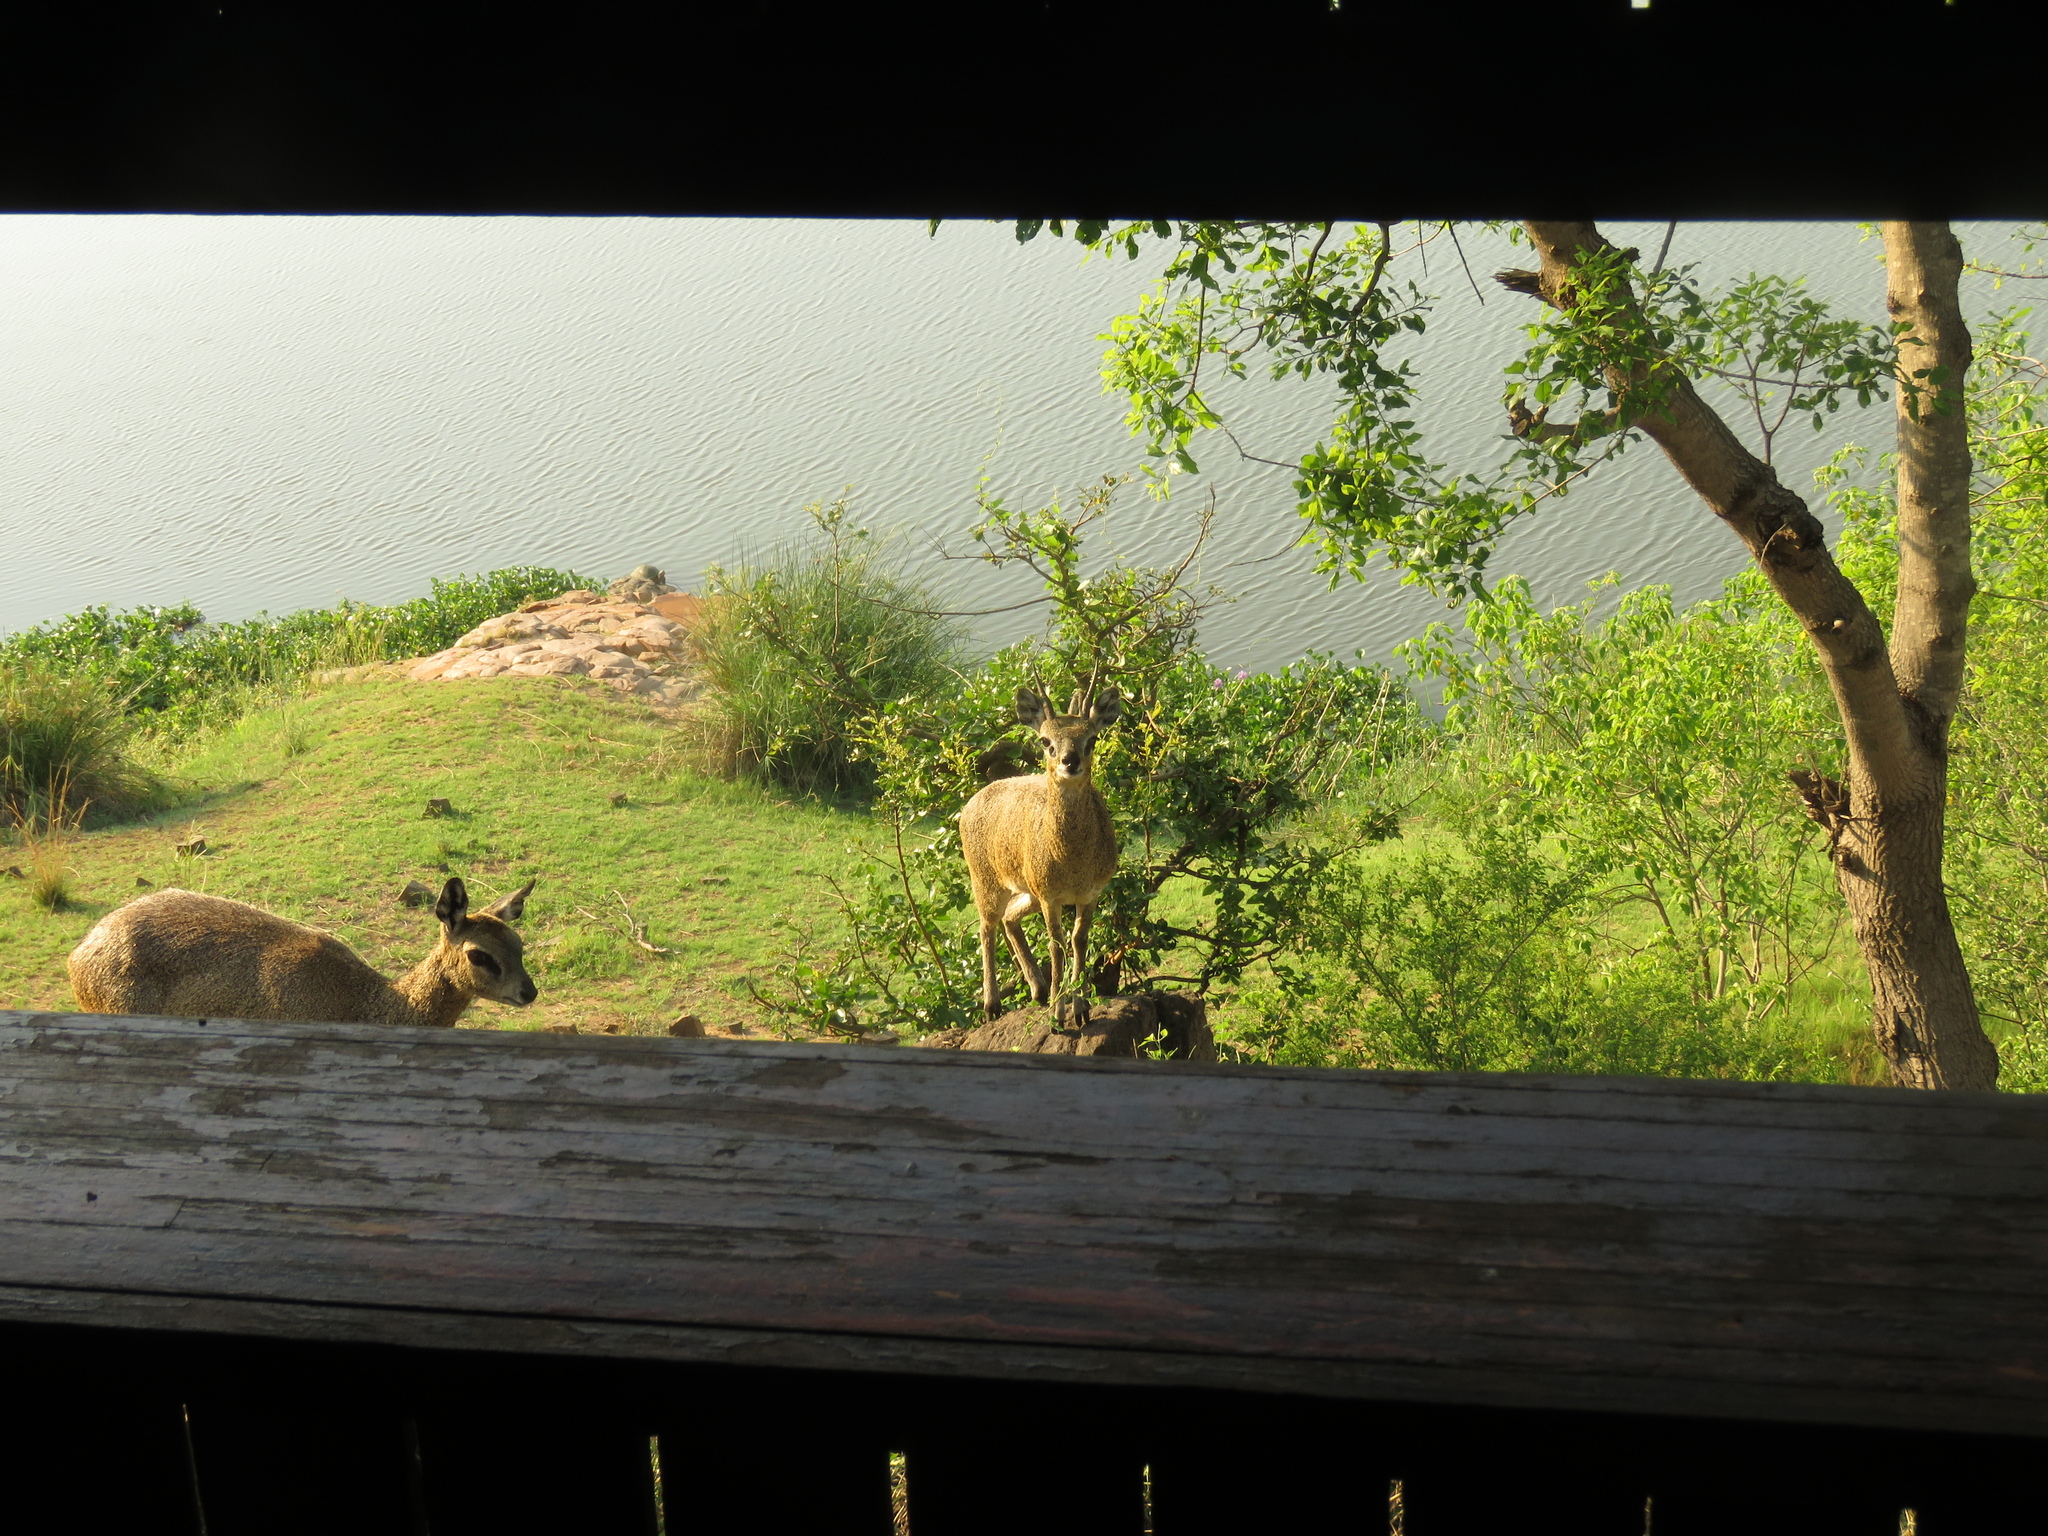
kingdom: Animalia
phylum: Chordata
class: Mammalia
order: Artiodactyla
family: Bovidae
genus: Oreotragus
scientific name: Oreotragus oreotragus
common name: Klipspringer
